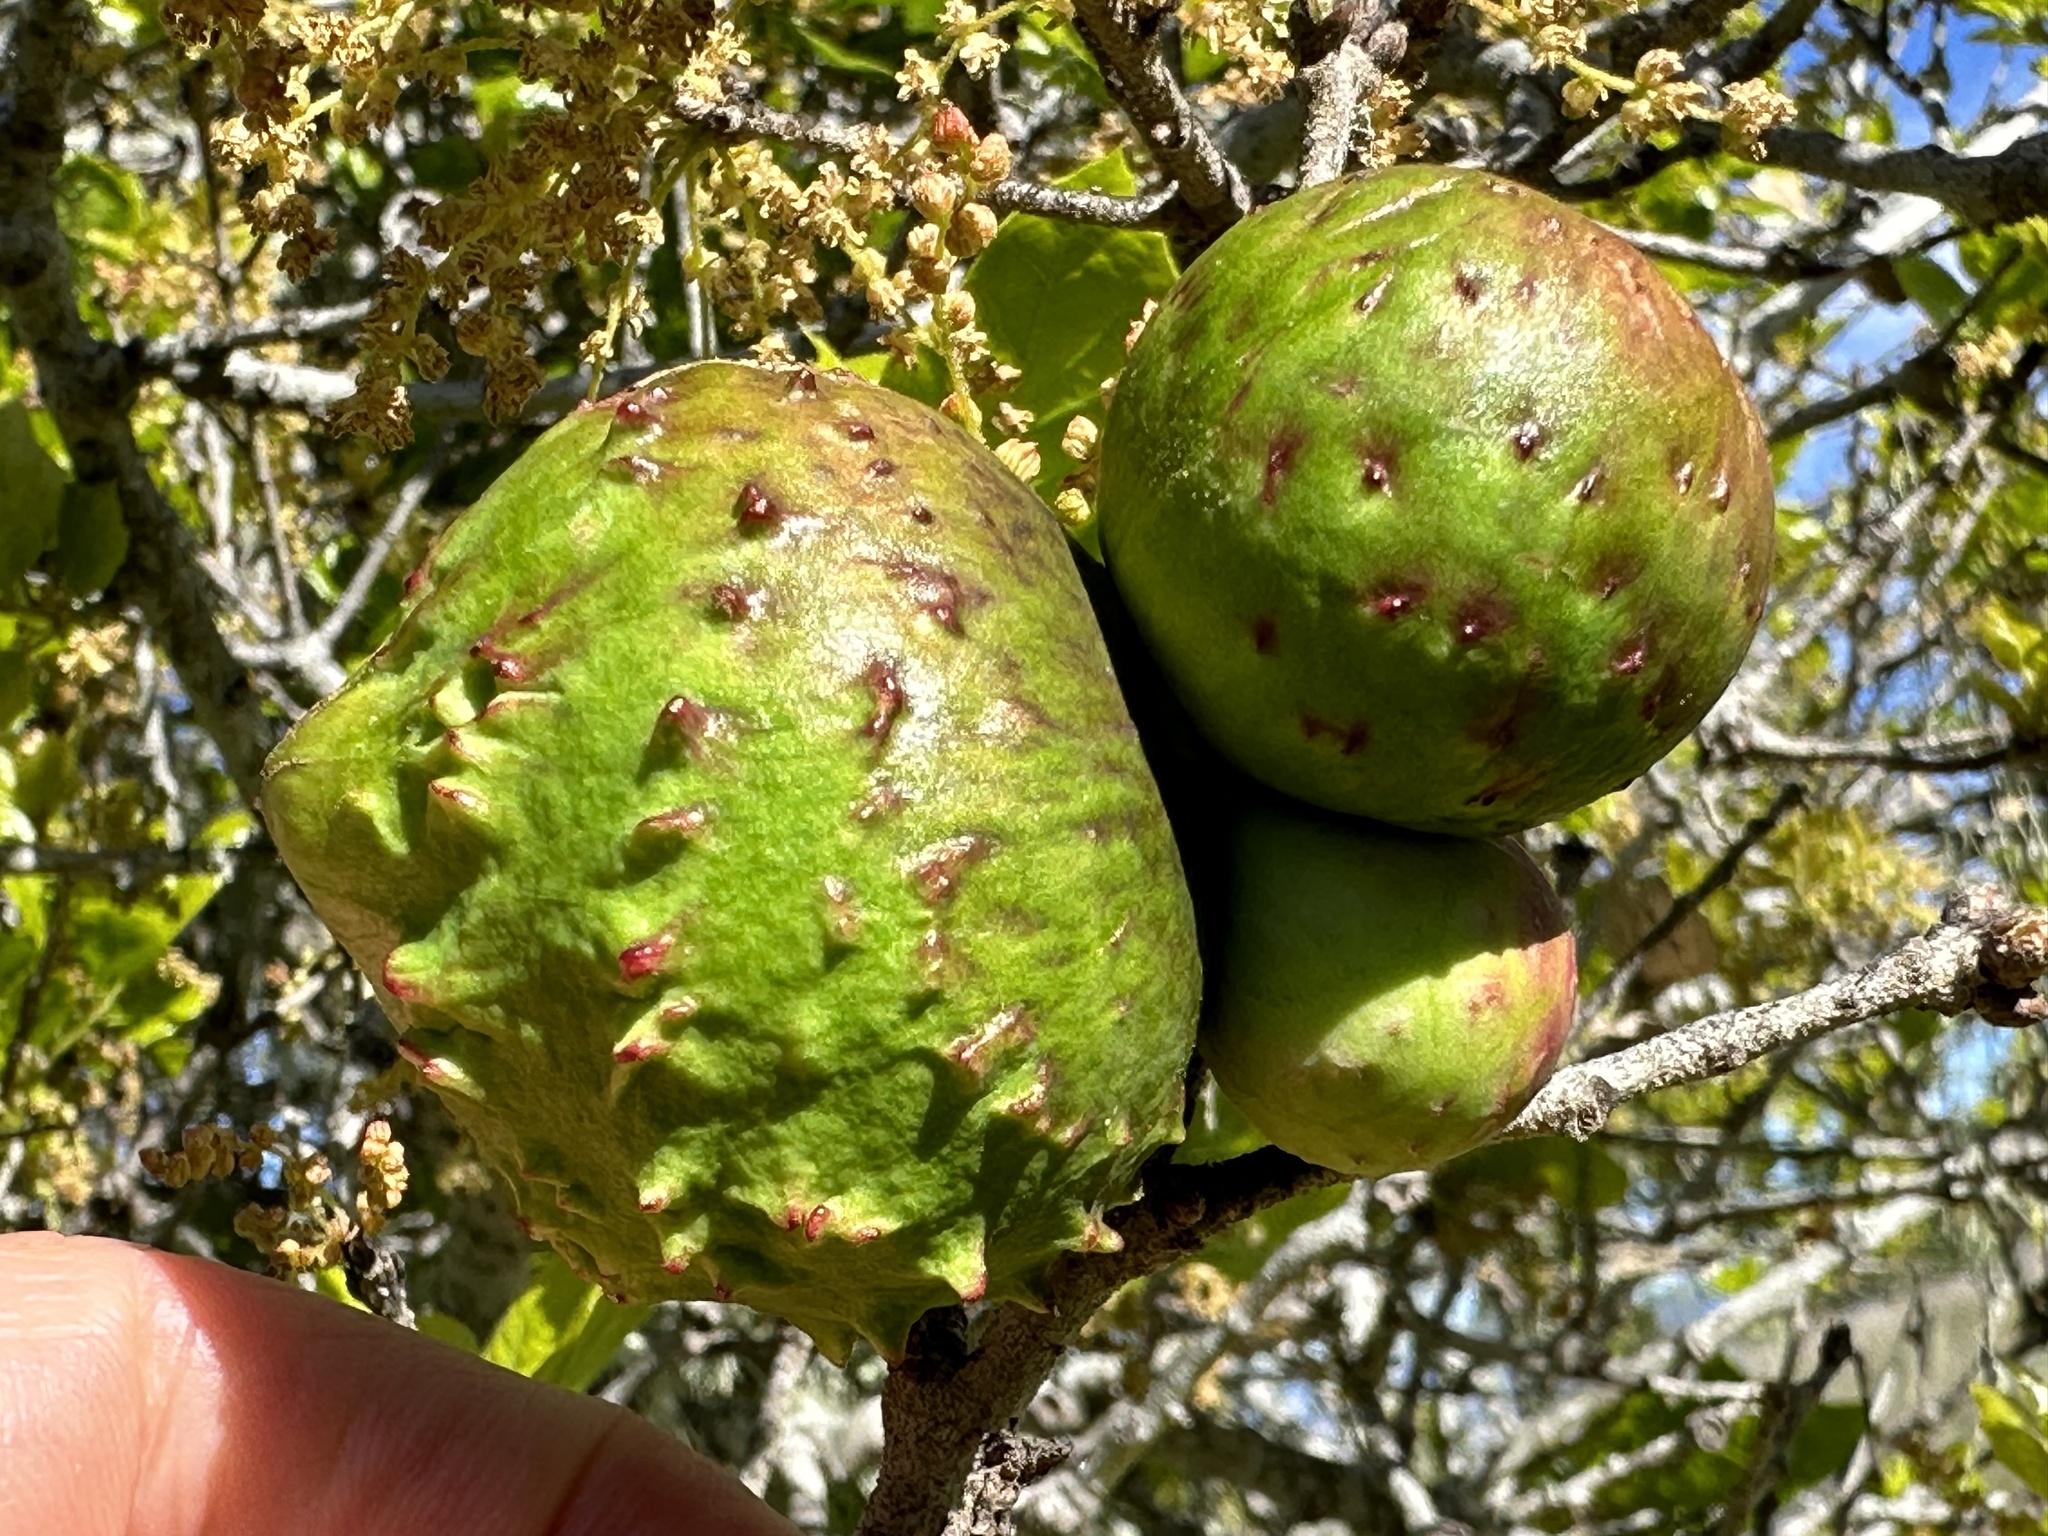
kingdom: Animalia
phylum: Arthropoda
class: Insecta
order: Hymenoptera
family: Cynipidae
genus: Amphibolips
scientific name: Amphibolips quercuspomiformis
